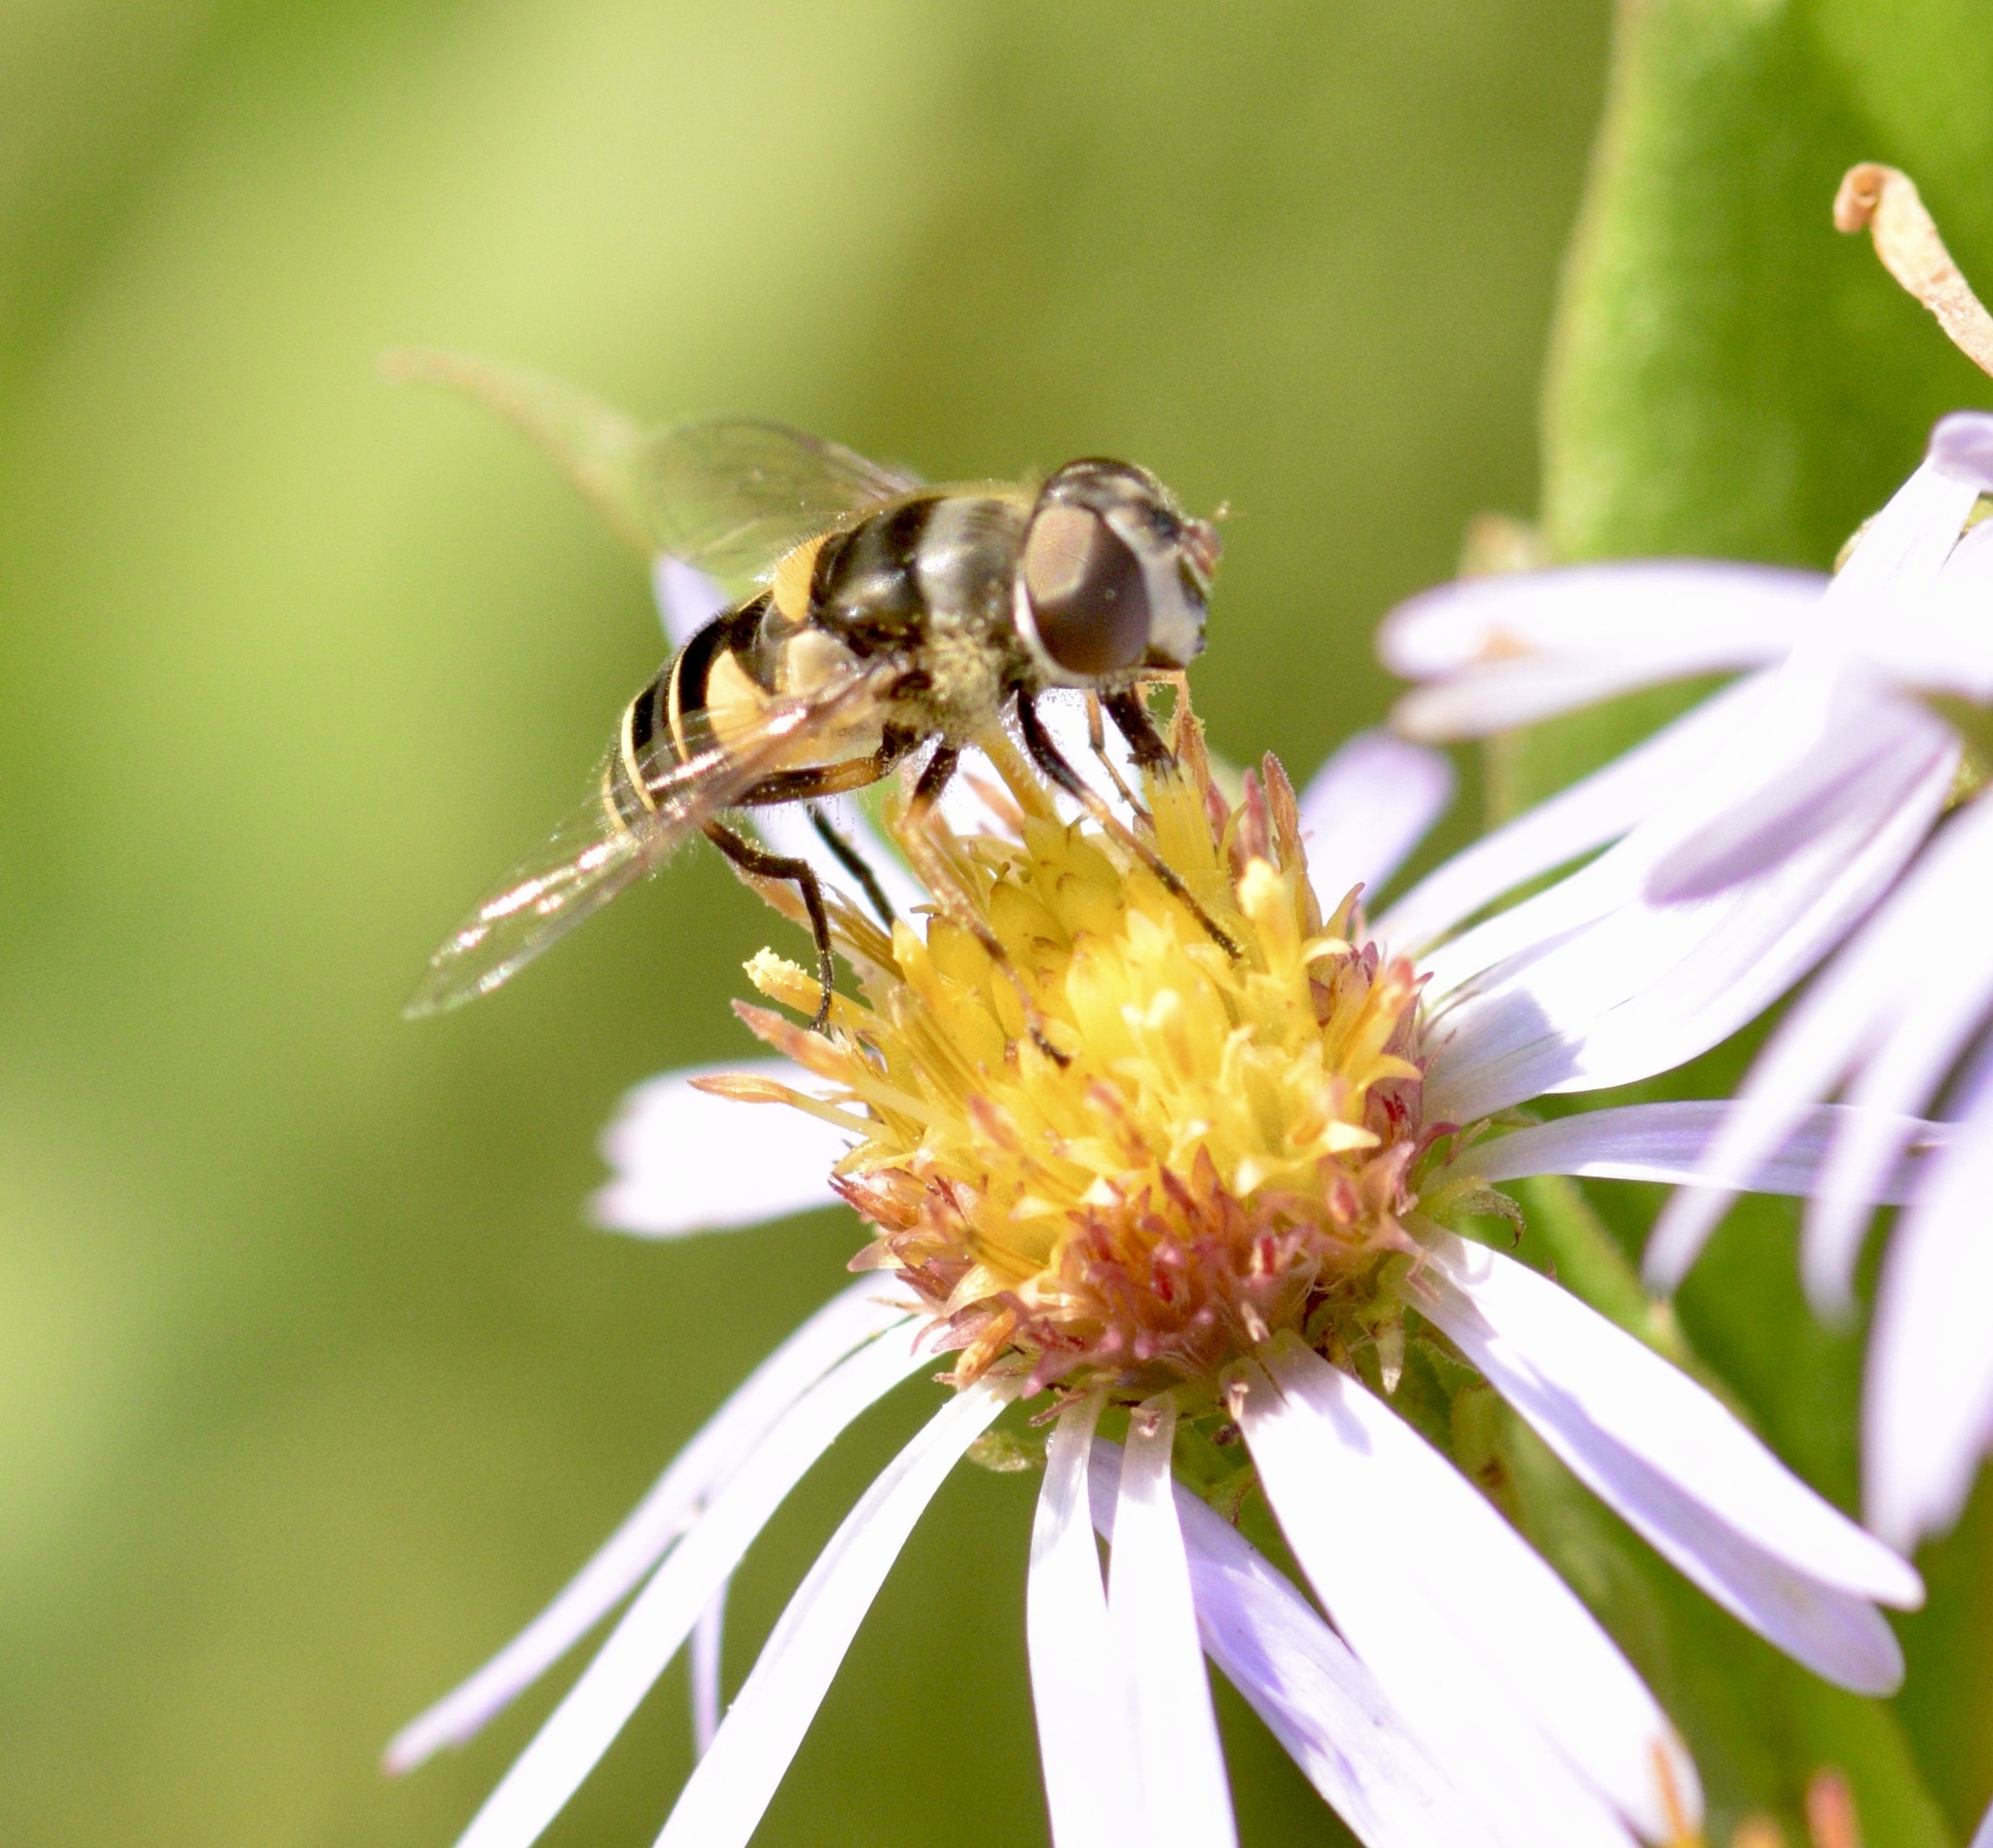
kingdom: Animalia
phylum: Arthropoda
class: Insecta
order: Diptera
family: Syrphidae
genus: Eristalis
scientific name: Eristalis transversa
